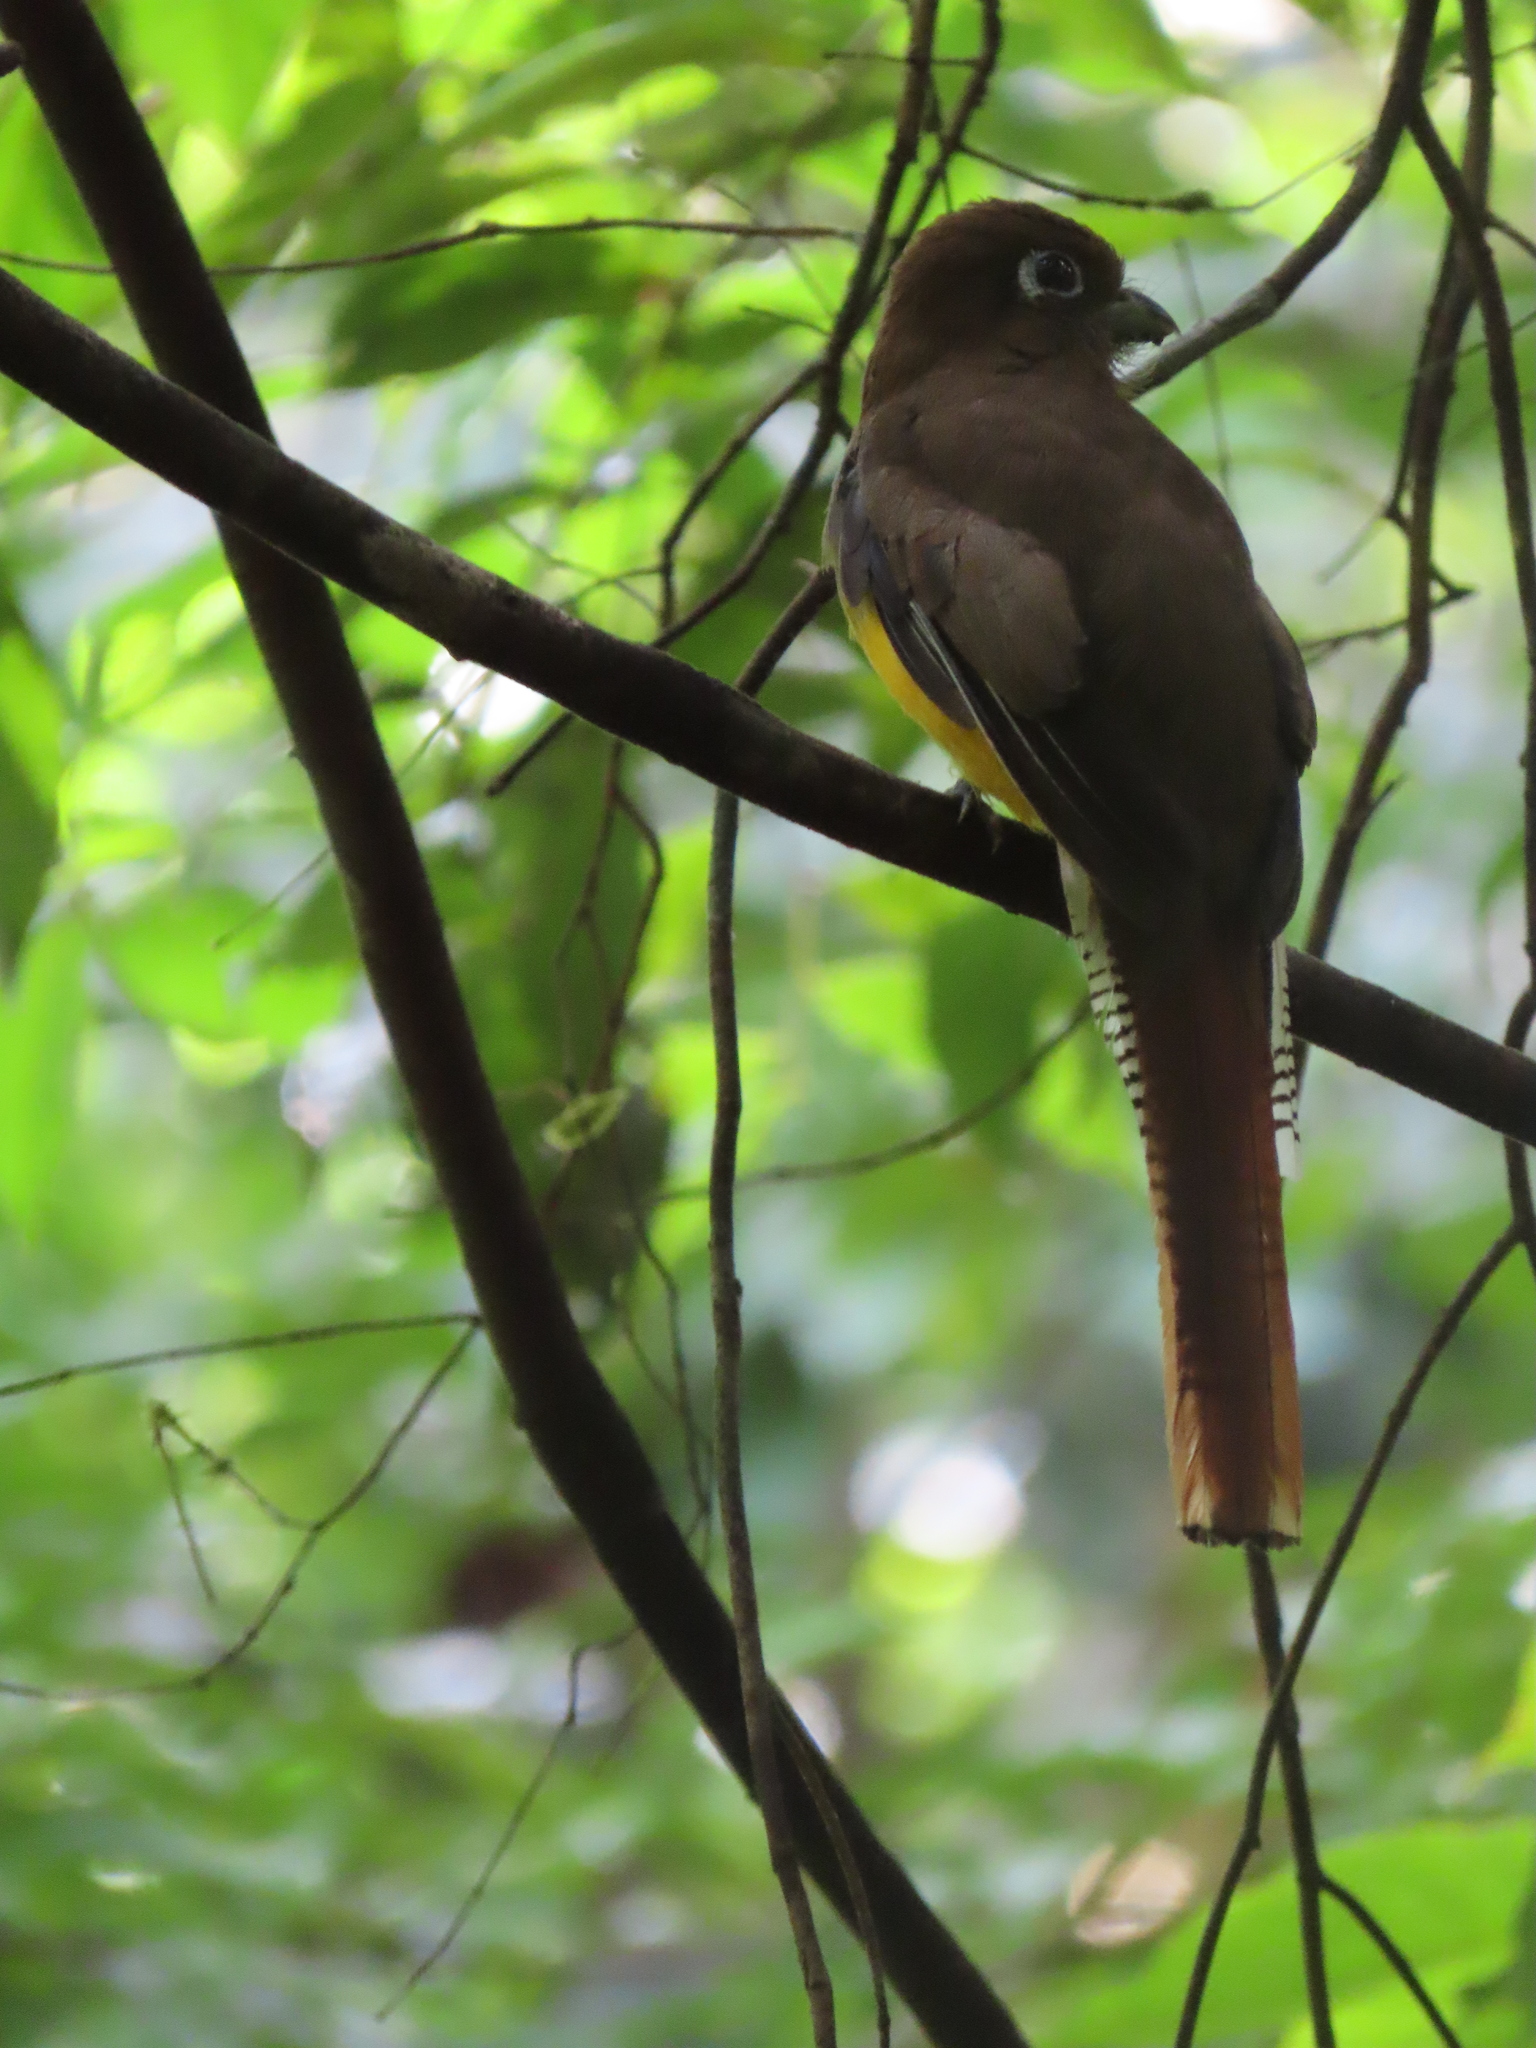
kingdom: Animalia
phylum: Chordata
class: Aves
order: Trogoniformes
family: Trogonidae
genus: Trogon
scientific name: Trogon rufus
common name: Black-throated trogon
